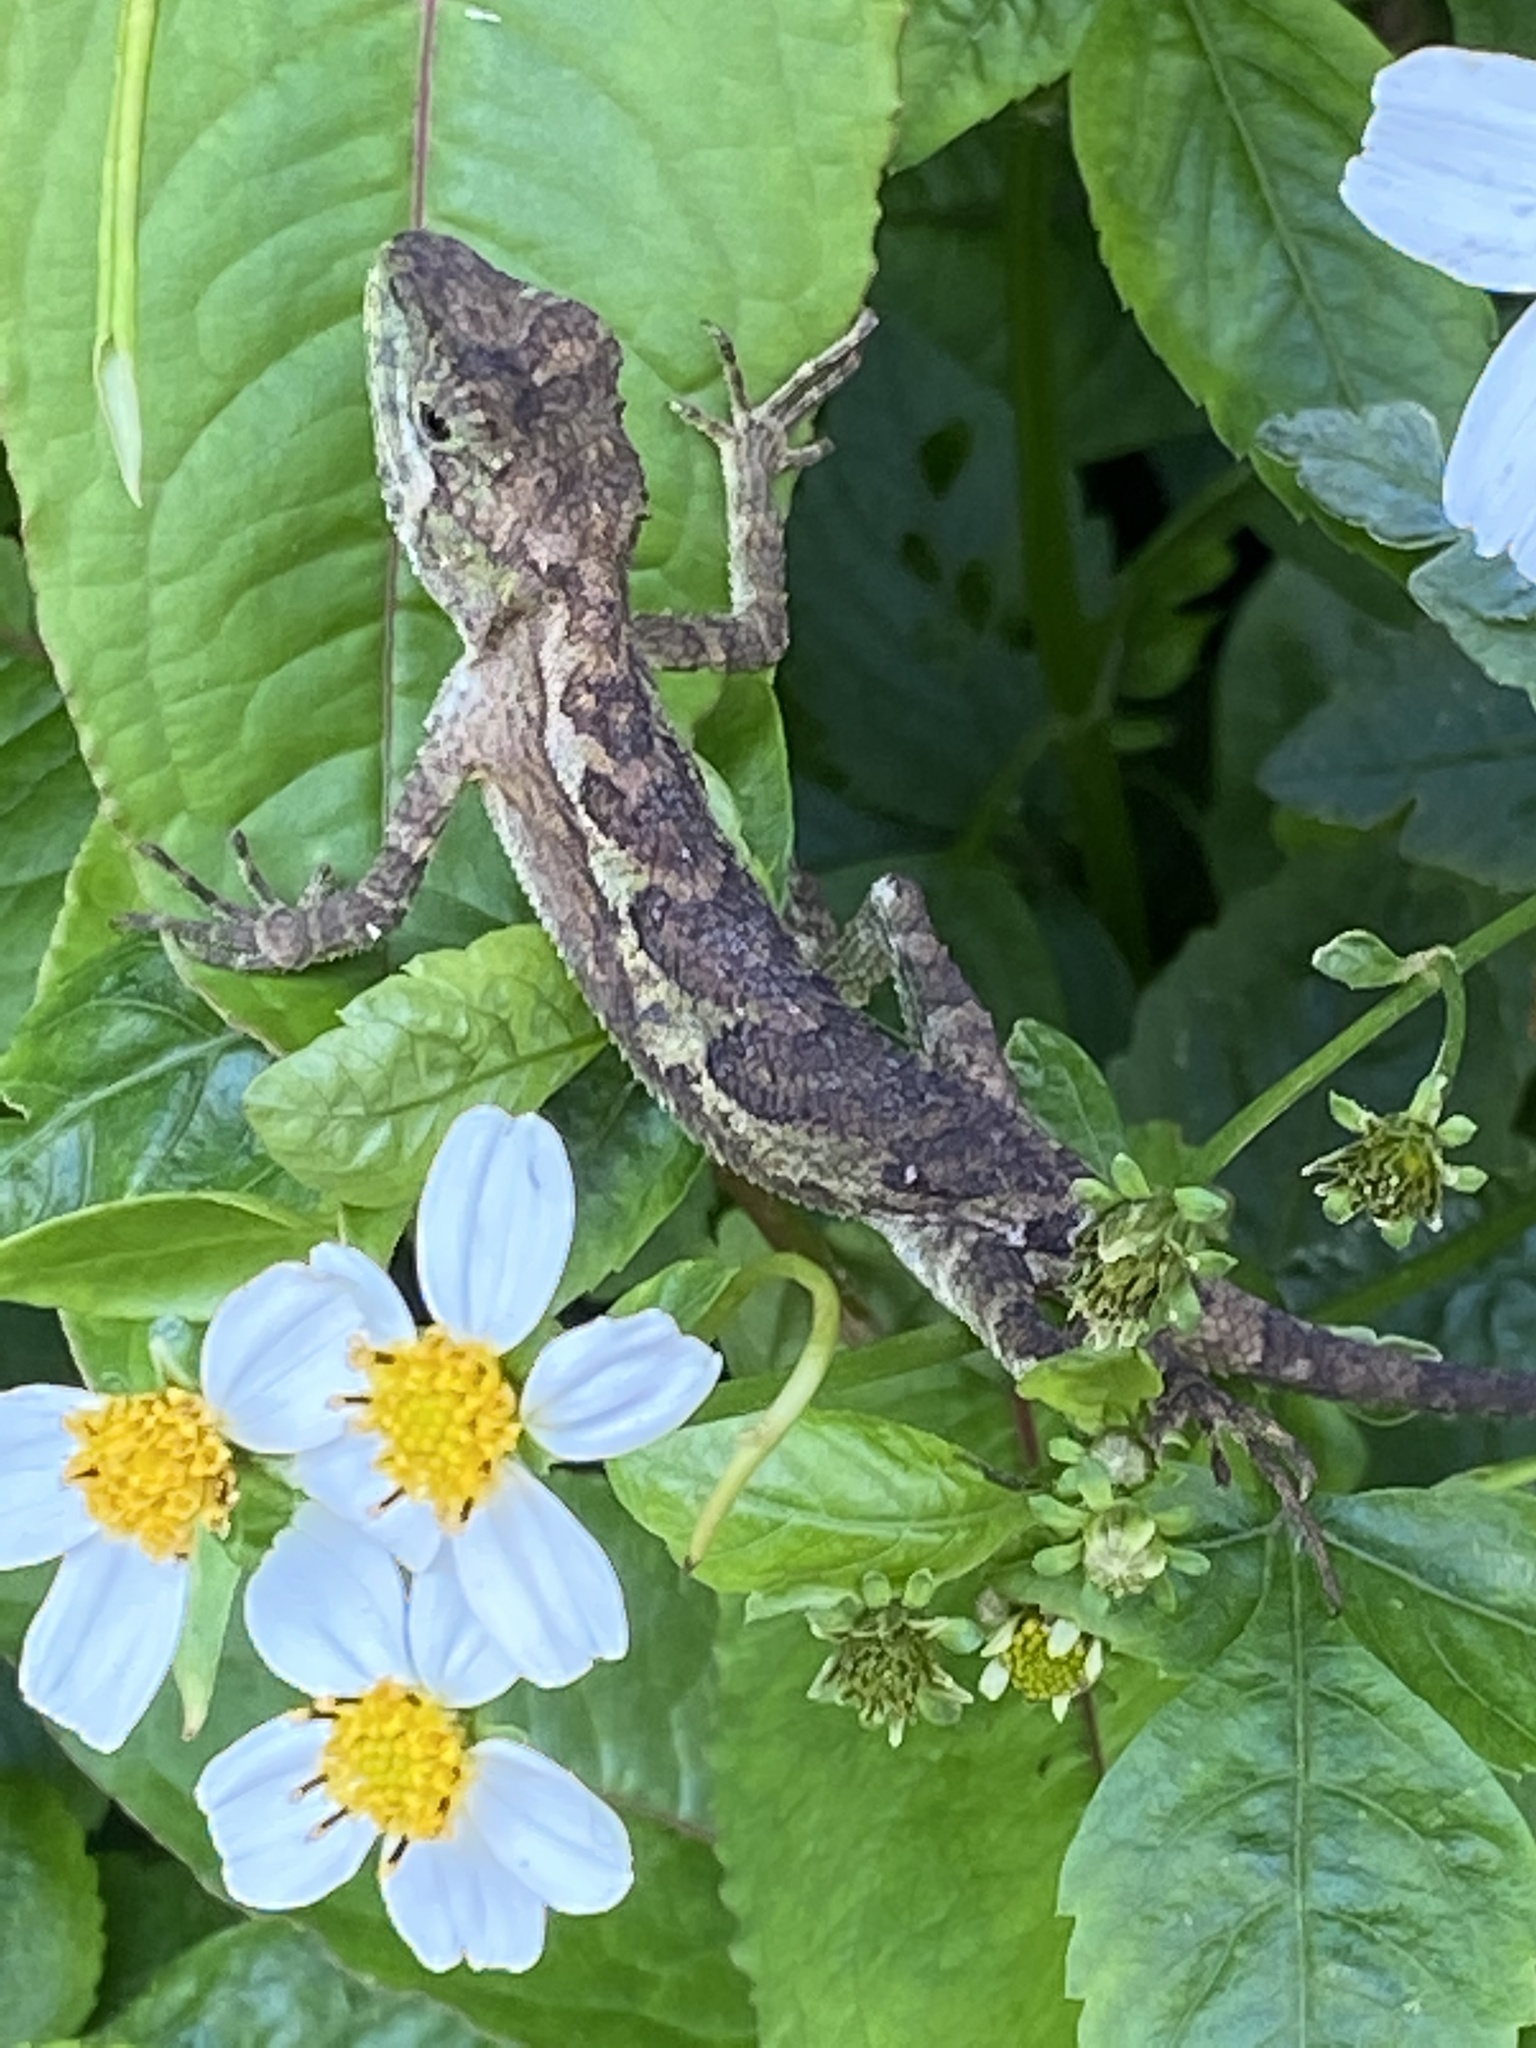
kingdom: Fungi
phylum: Basidiomycota
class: Agaricomycetes
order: Boletales
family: Diplocystidiaceae
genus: Diploderma
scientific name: Diploderma polygonatum
